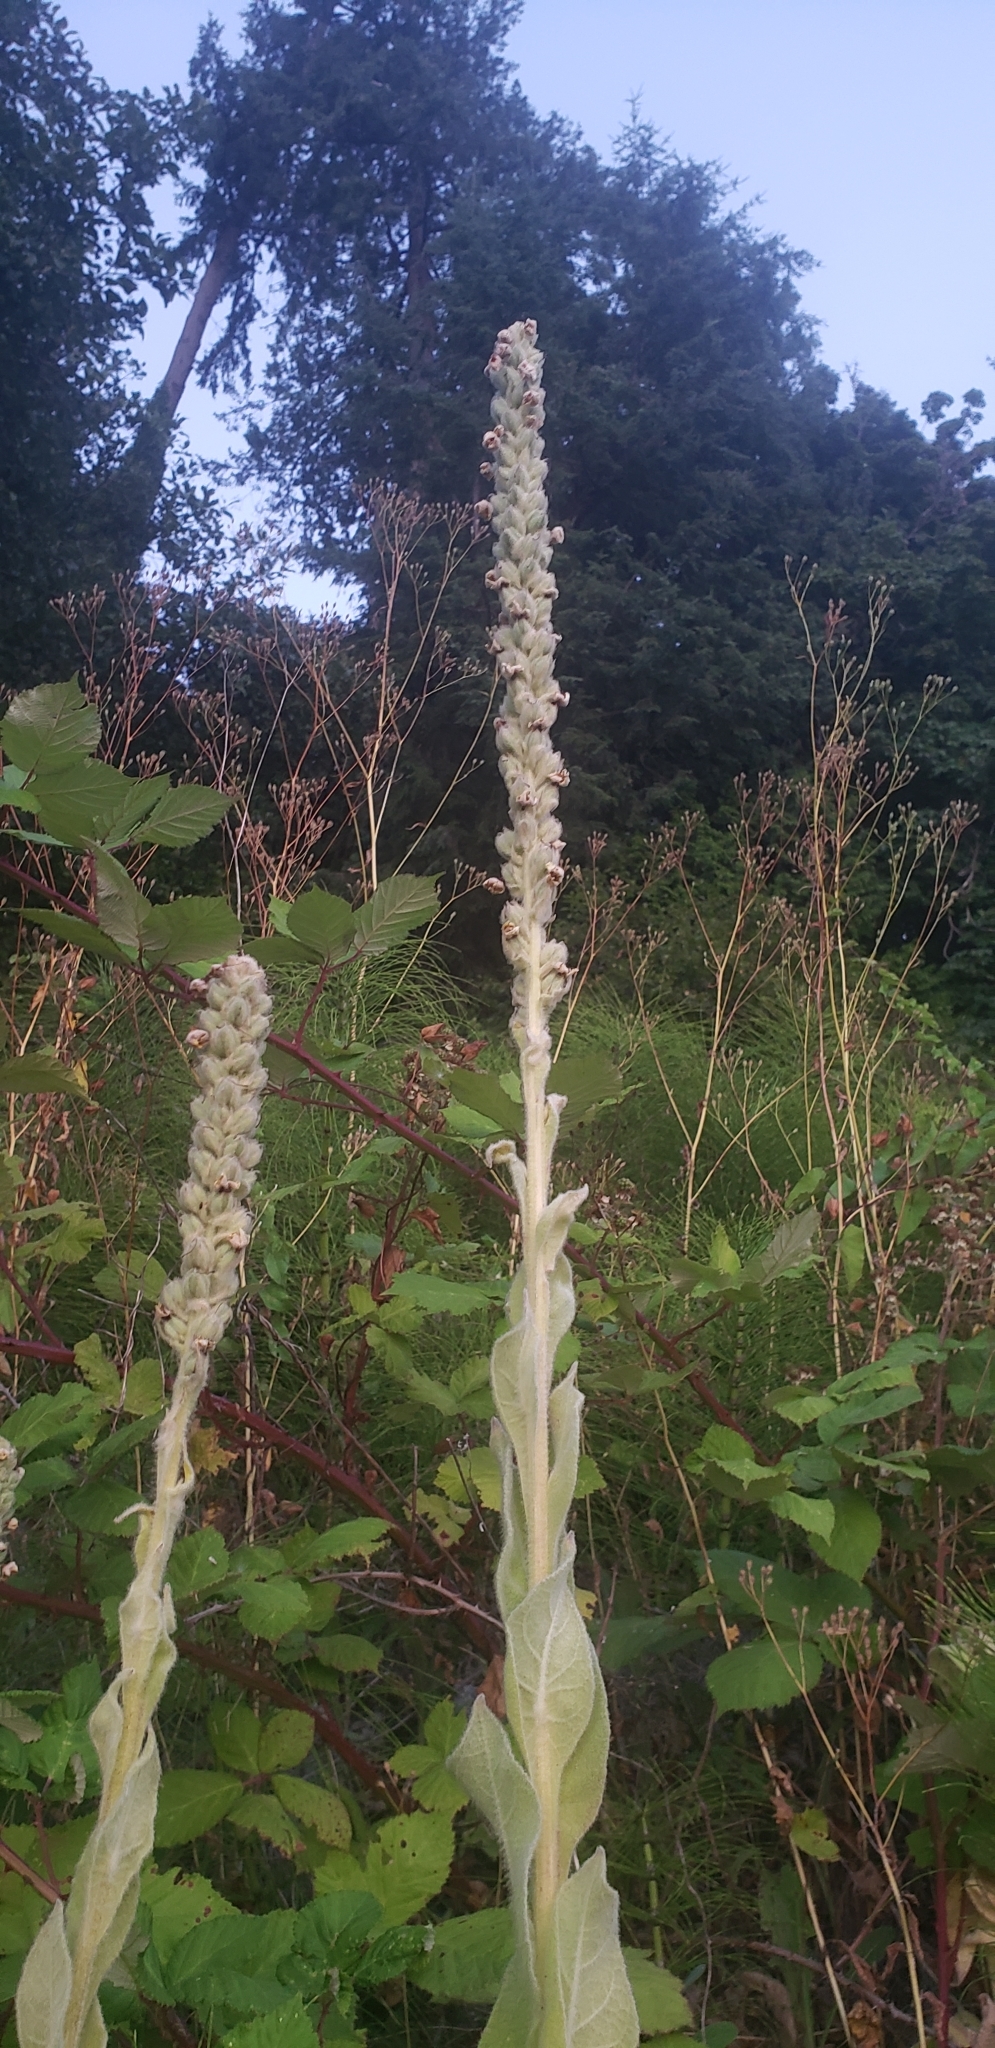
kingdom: Plantae
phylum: Tracheophyta
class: Magnoliopsida
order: Lamiales
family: Scrophulariaceae
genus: Verbascum
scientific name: Verbascum thapsus
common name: Common mullein
